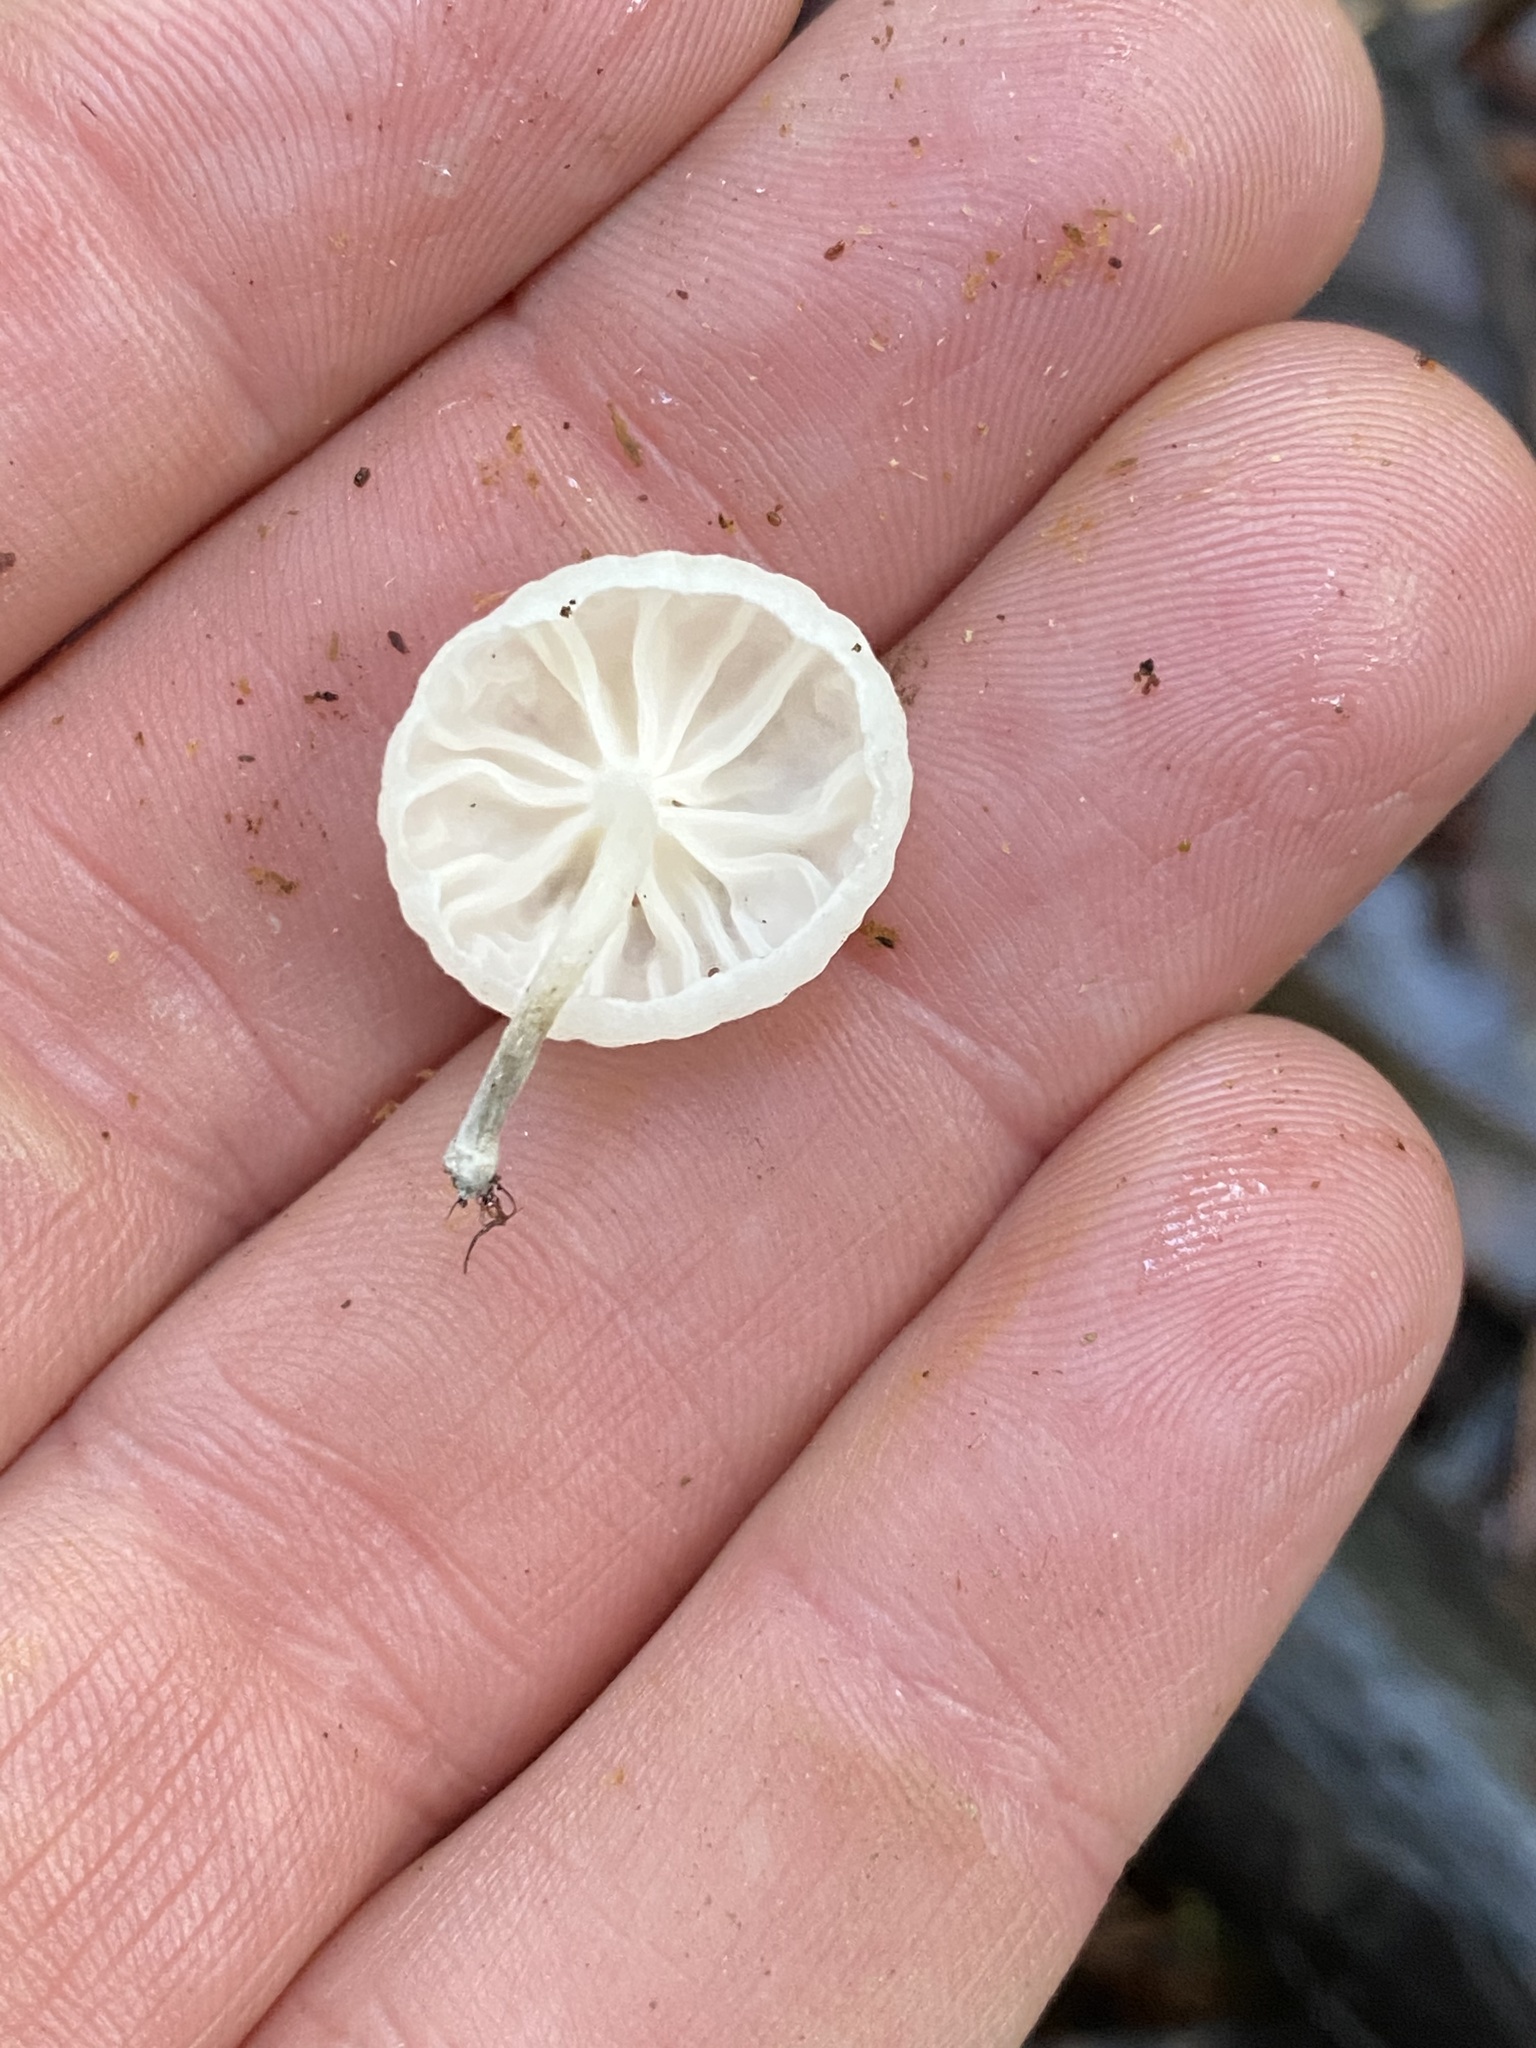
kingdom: Fungi
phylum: Basidiomycota
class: Agaricomycetes
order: Agaricales
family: Omphalotaceae
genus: Marasmiellus
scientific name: Marasmiellus candidus
